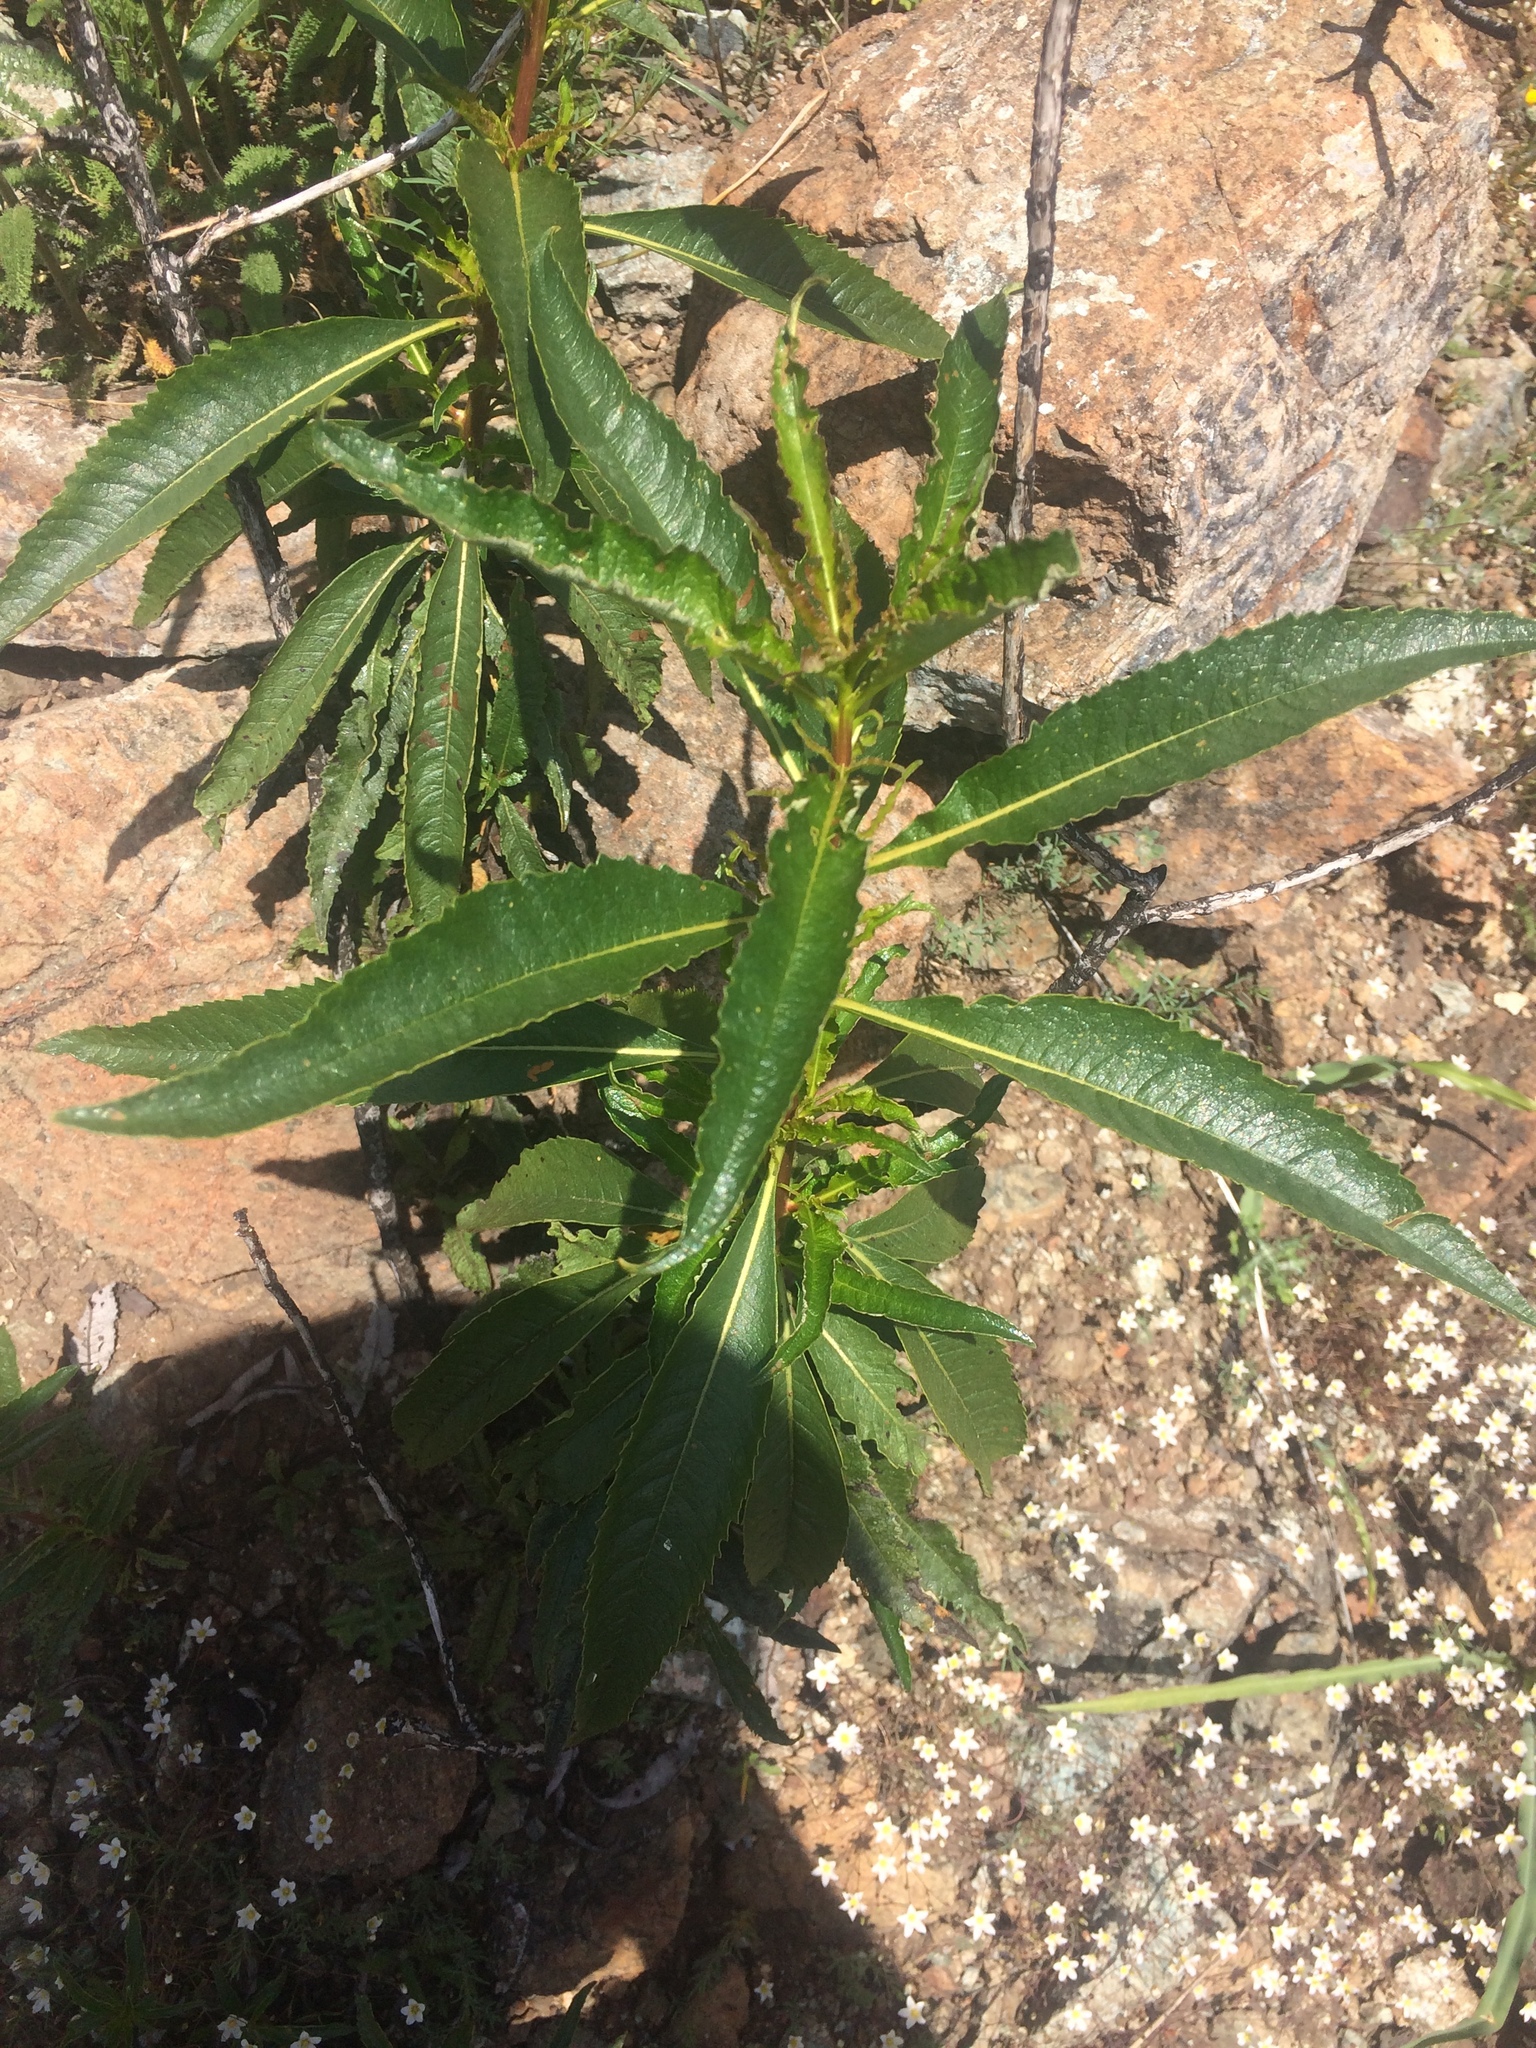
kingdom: Plantae
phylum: Tracheophyta
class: Magnoliopsida
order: Boraginales
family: Namaceae
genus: Eriodictyon
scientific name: Eriodictyon californicum
